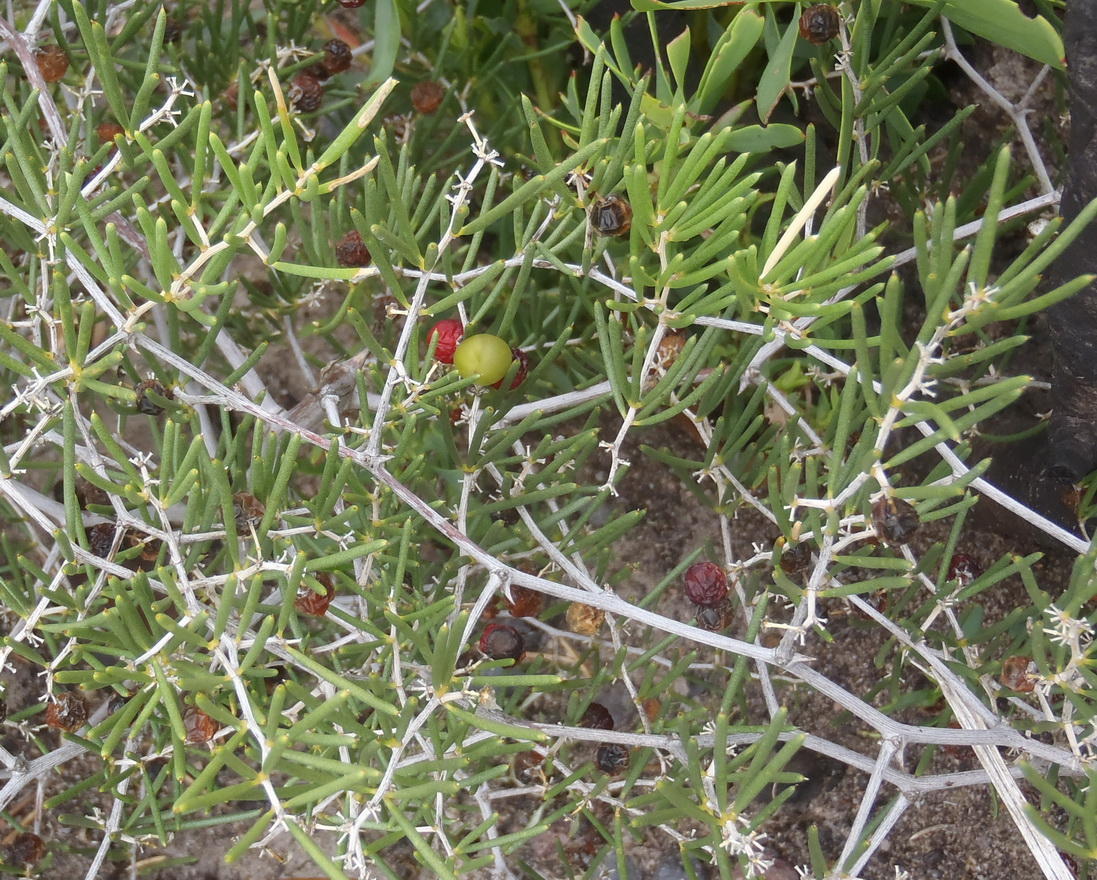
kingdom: Plantae
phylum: Tracheophyta
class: Liliopsida
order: Asparagales
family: Asparagaceae
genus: Asparagus
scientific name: Asparagus lignosus
